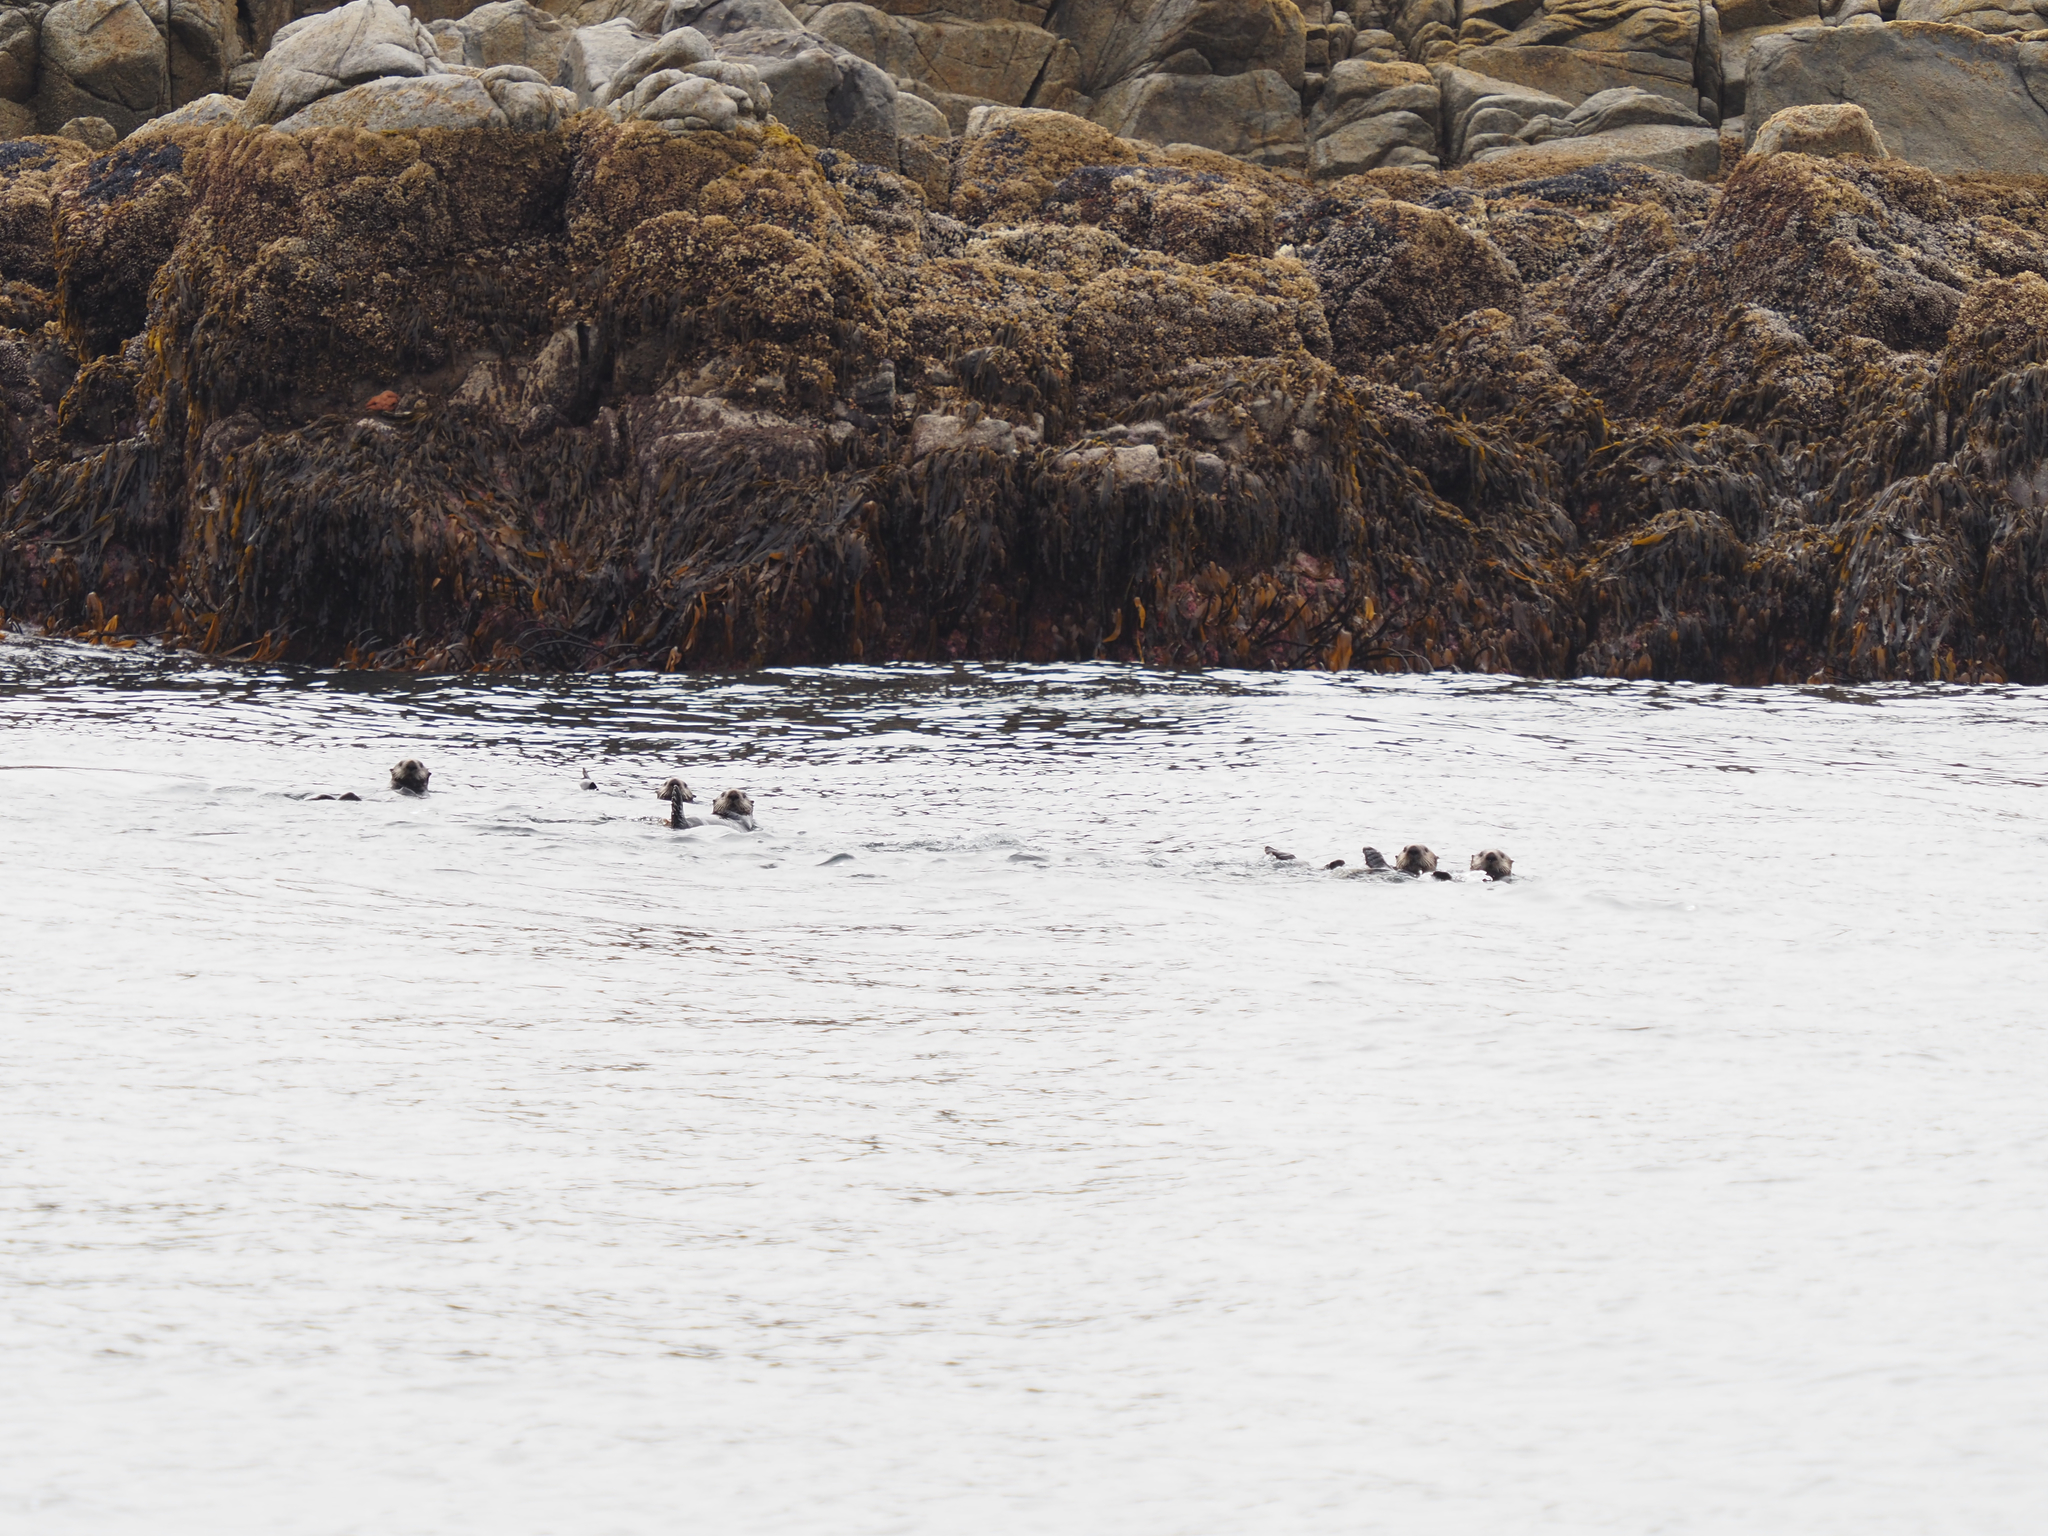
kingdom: Animalia
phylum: Chordata
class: Mammalia
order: Carnivora
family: Mustelidae
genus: Enhydra
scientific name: Enhydra lutris
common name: Sea otter
